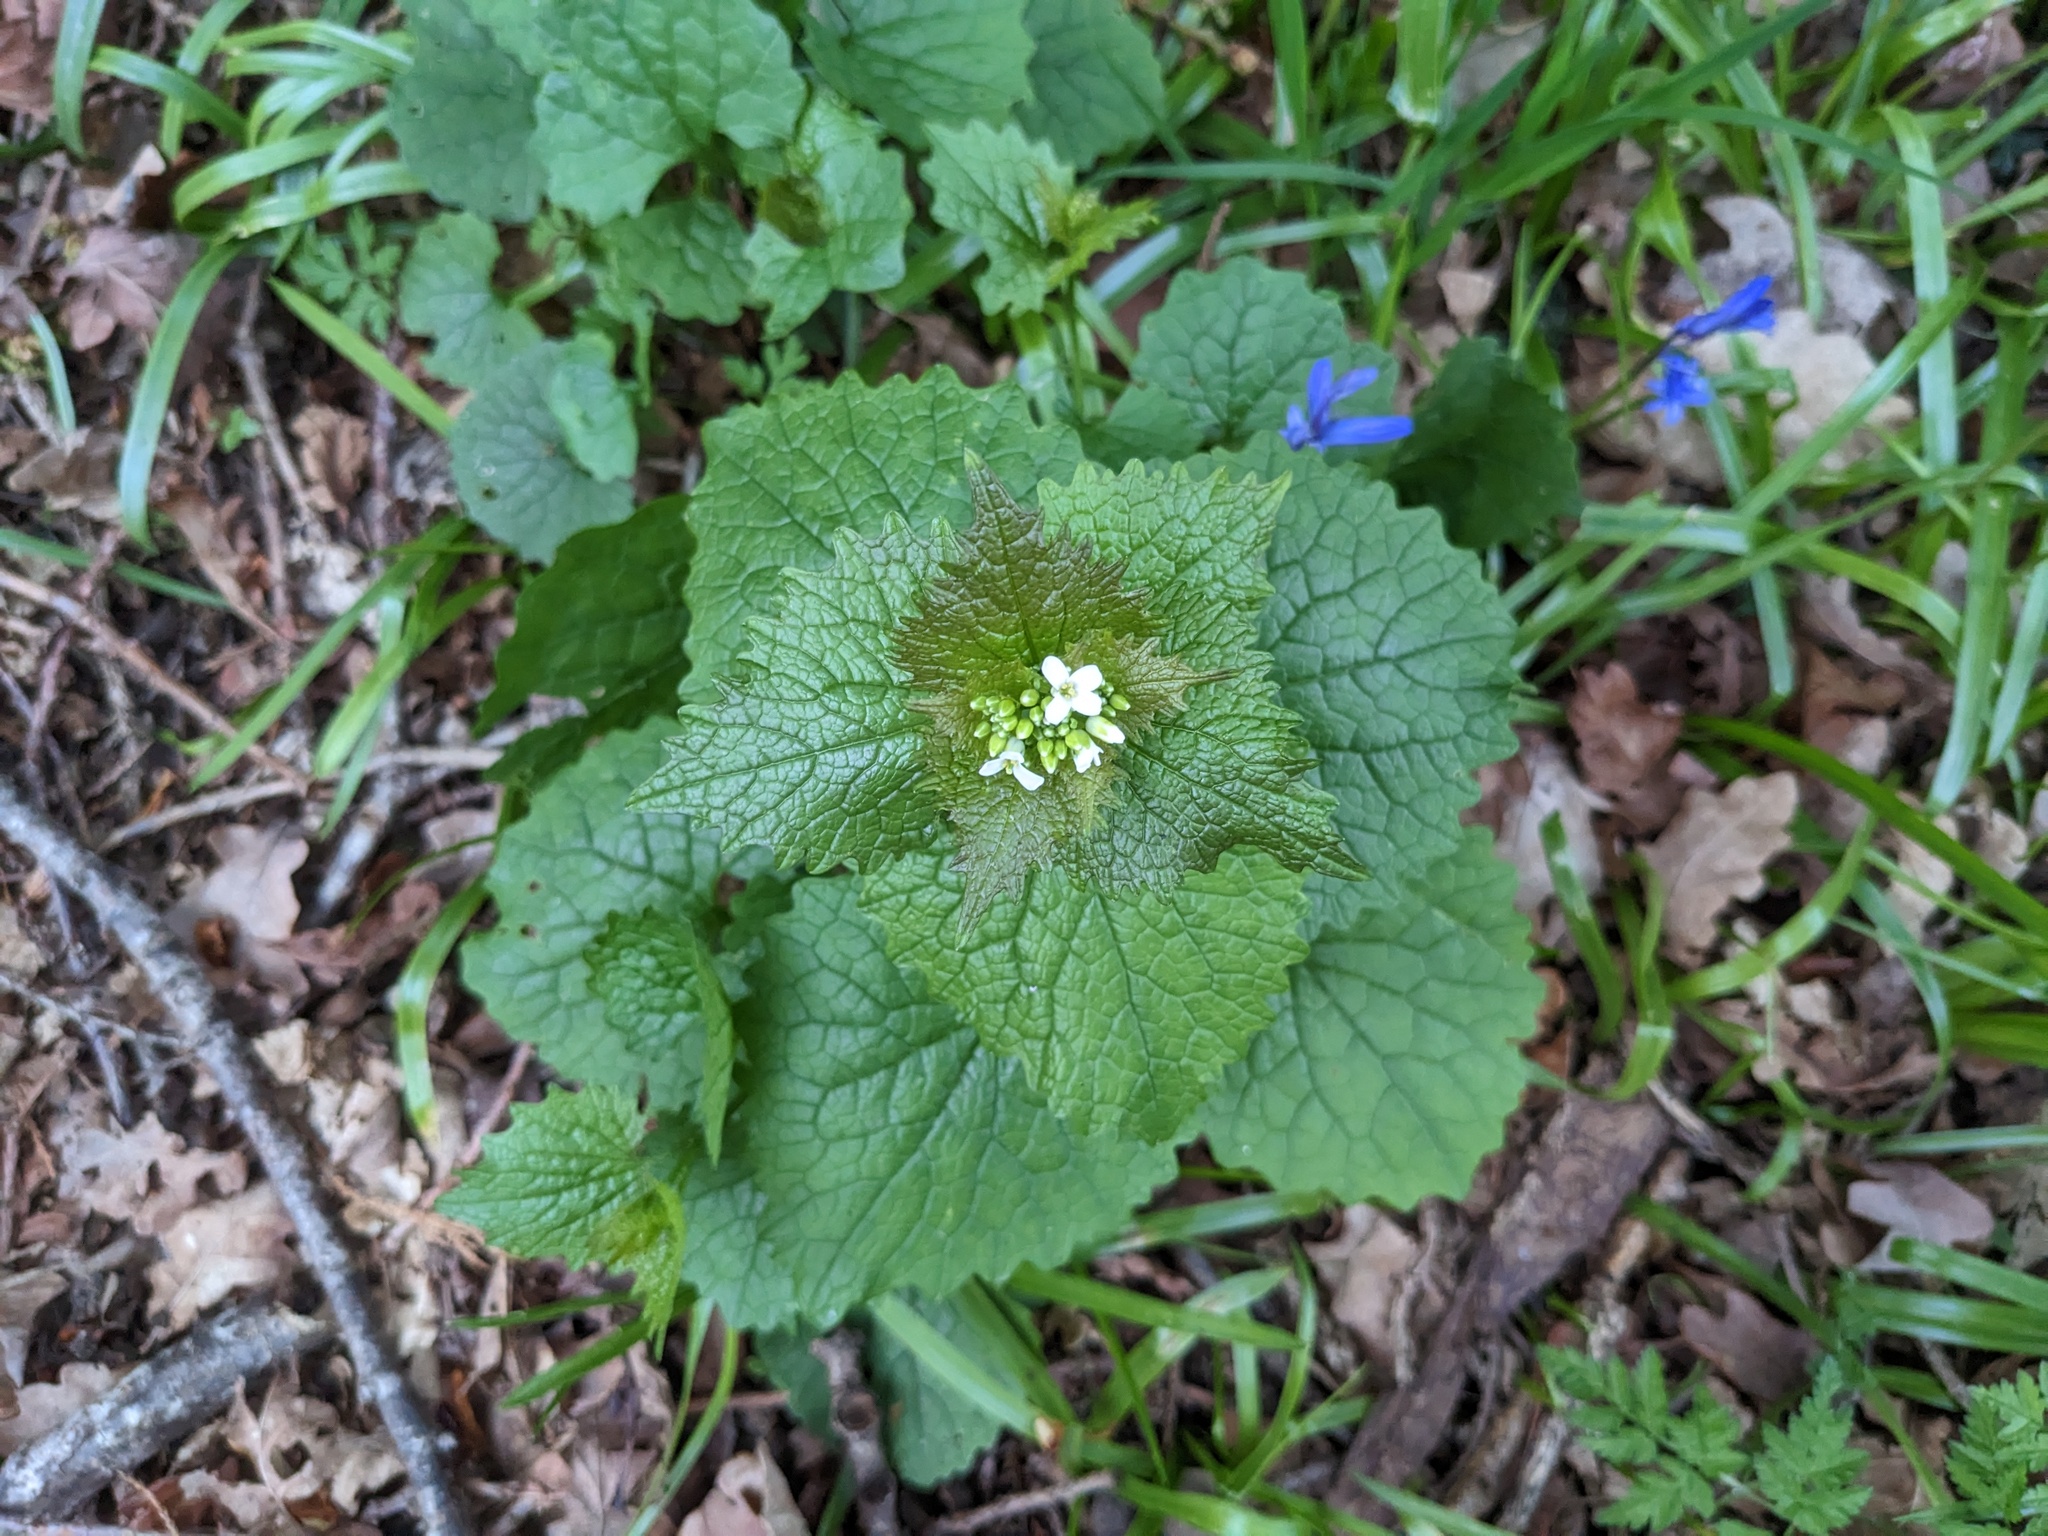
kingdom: Plantae
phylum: Tracheophyta
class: Magnoliopsida
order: Brassicales
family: Brassicaceae
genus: Alliaria
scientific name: Alliaria petiolata
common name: Garlic mustard
